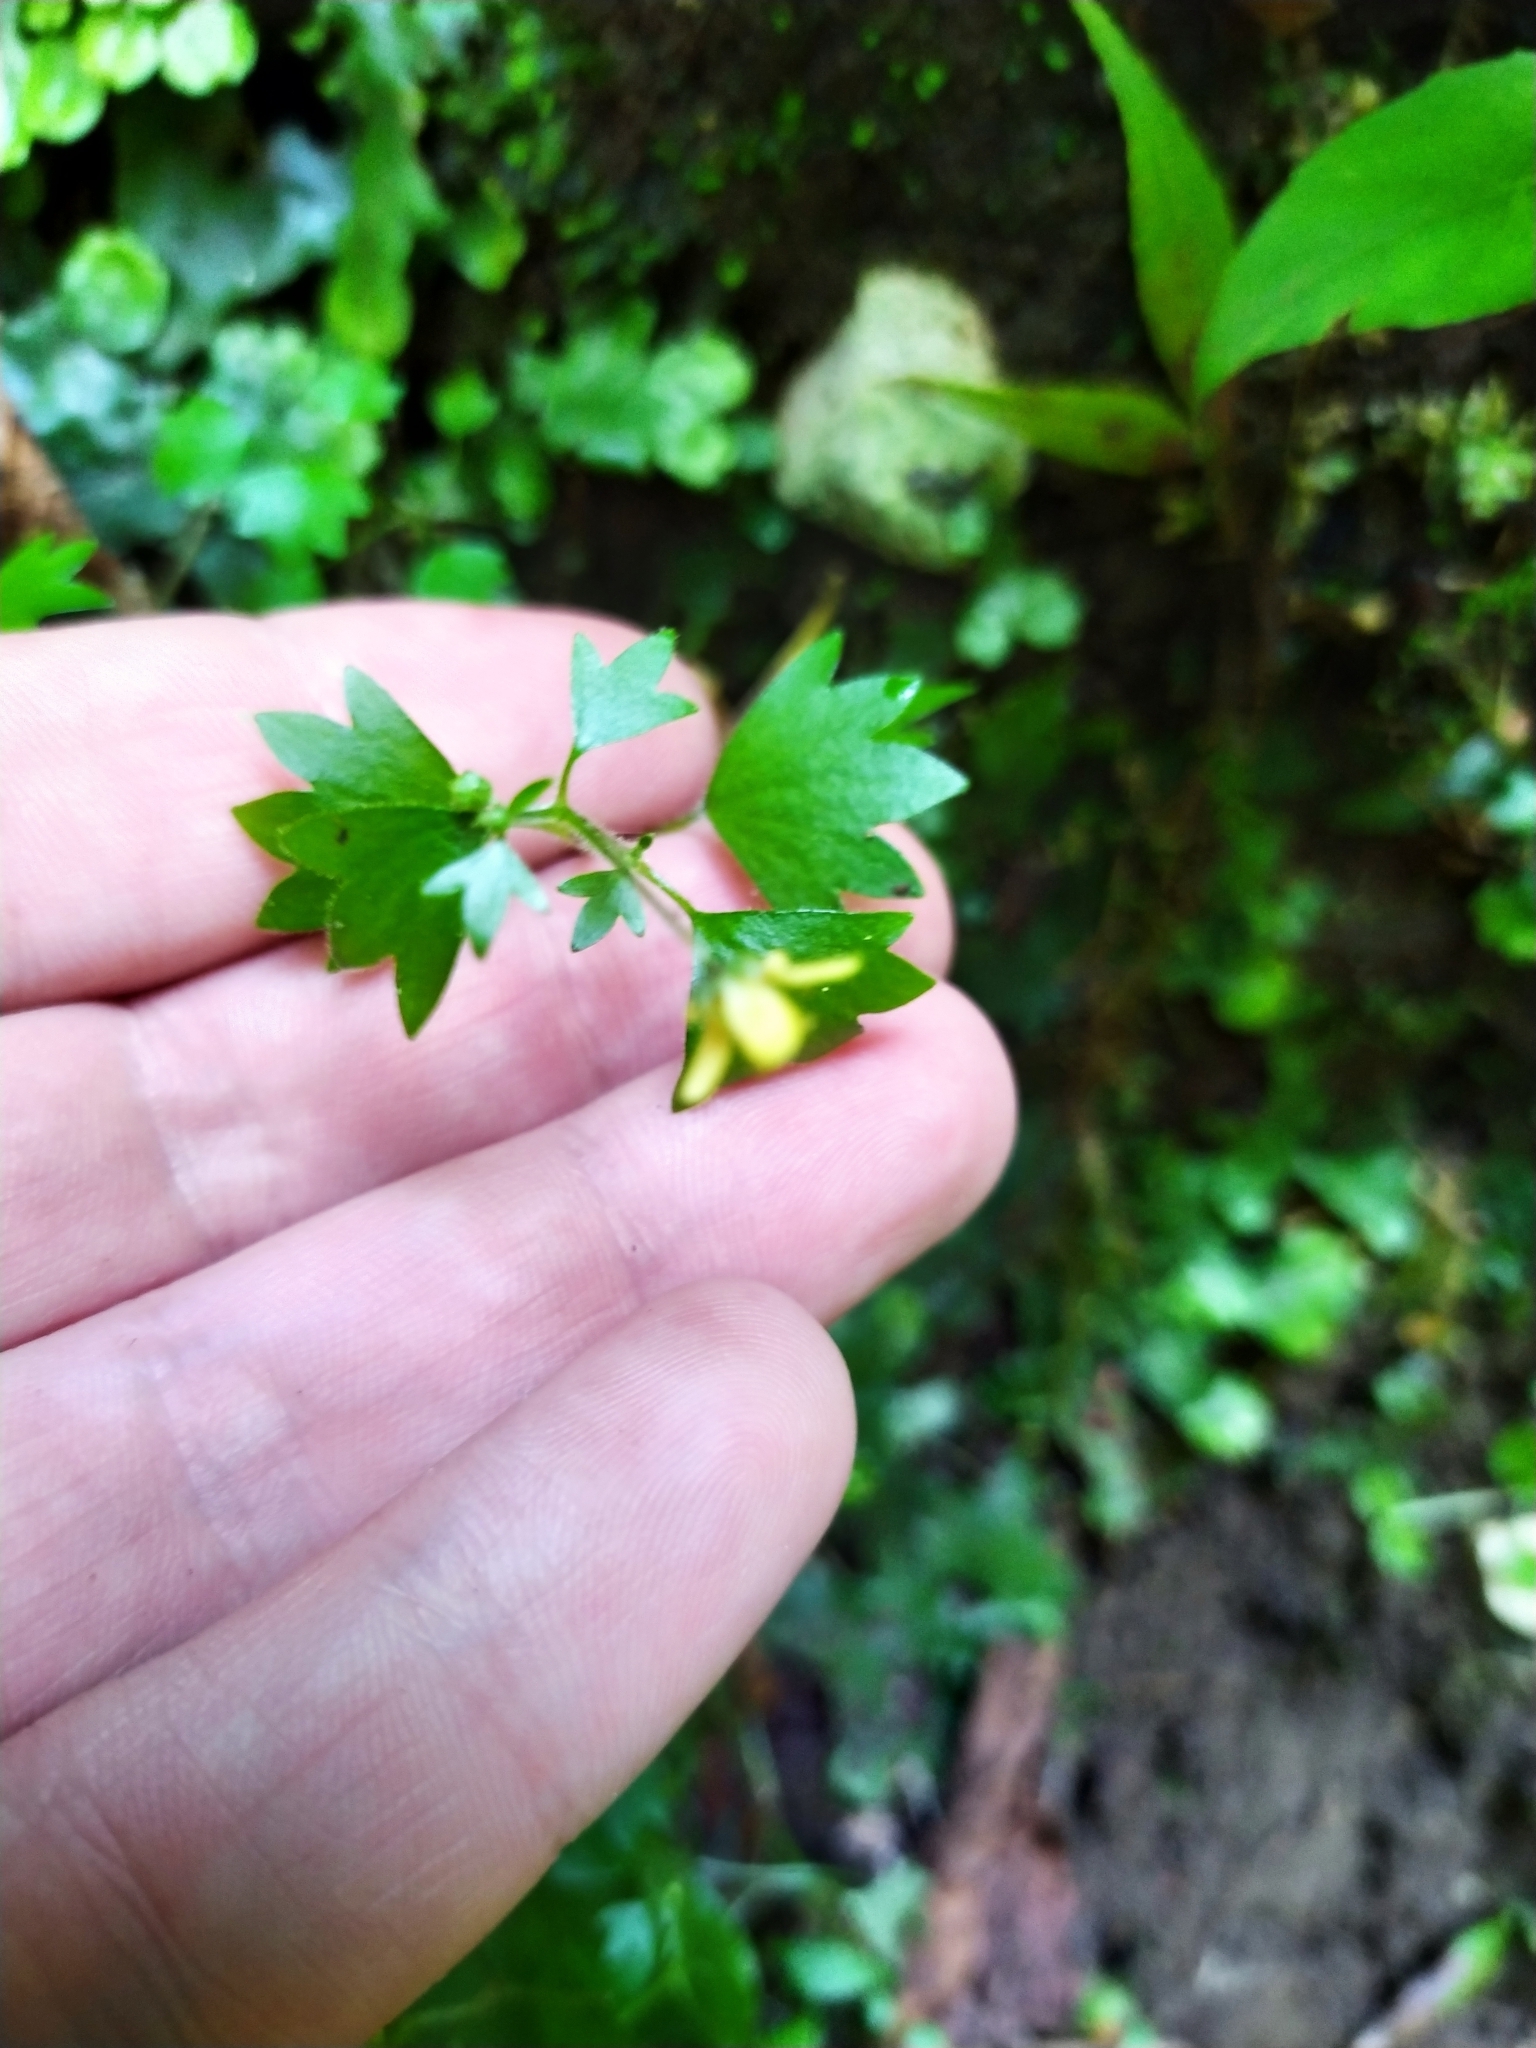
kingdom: Plantae
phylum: Tracheophyta
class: Magnoliopsida
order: Saxifragales
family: Saxifragaceae
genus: Saxifraga
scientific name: Saxifraga cymbalaria
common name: Celandine saxifrage
